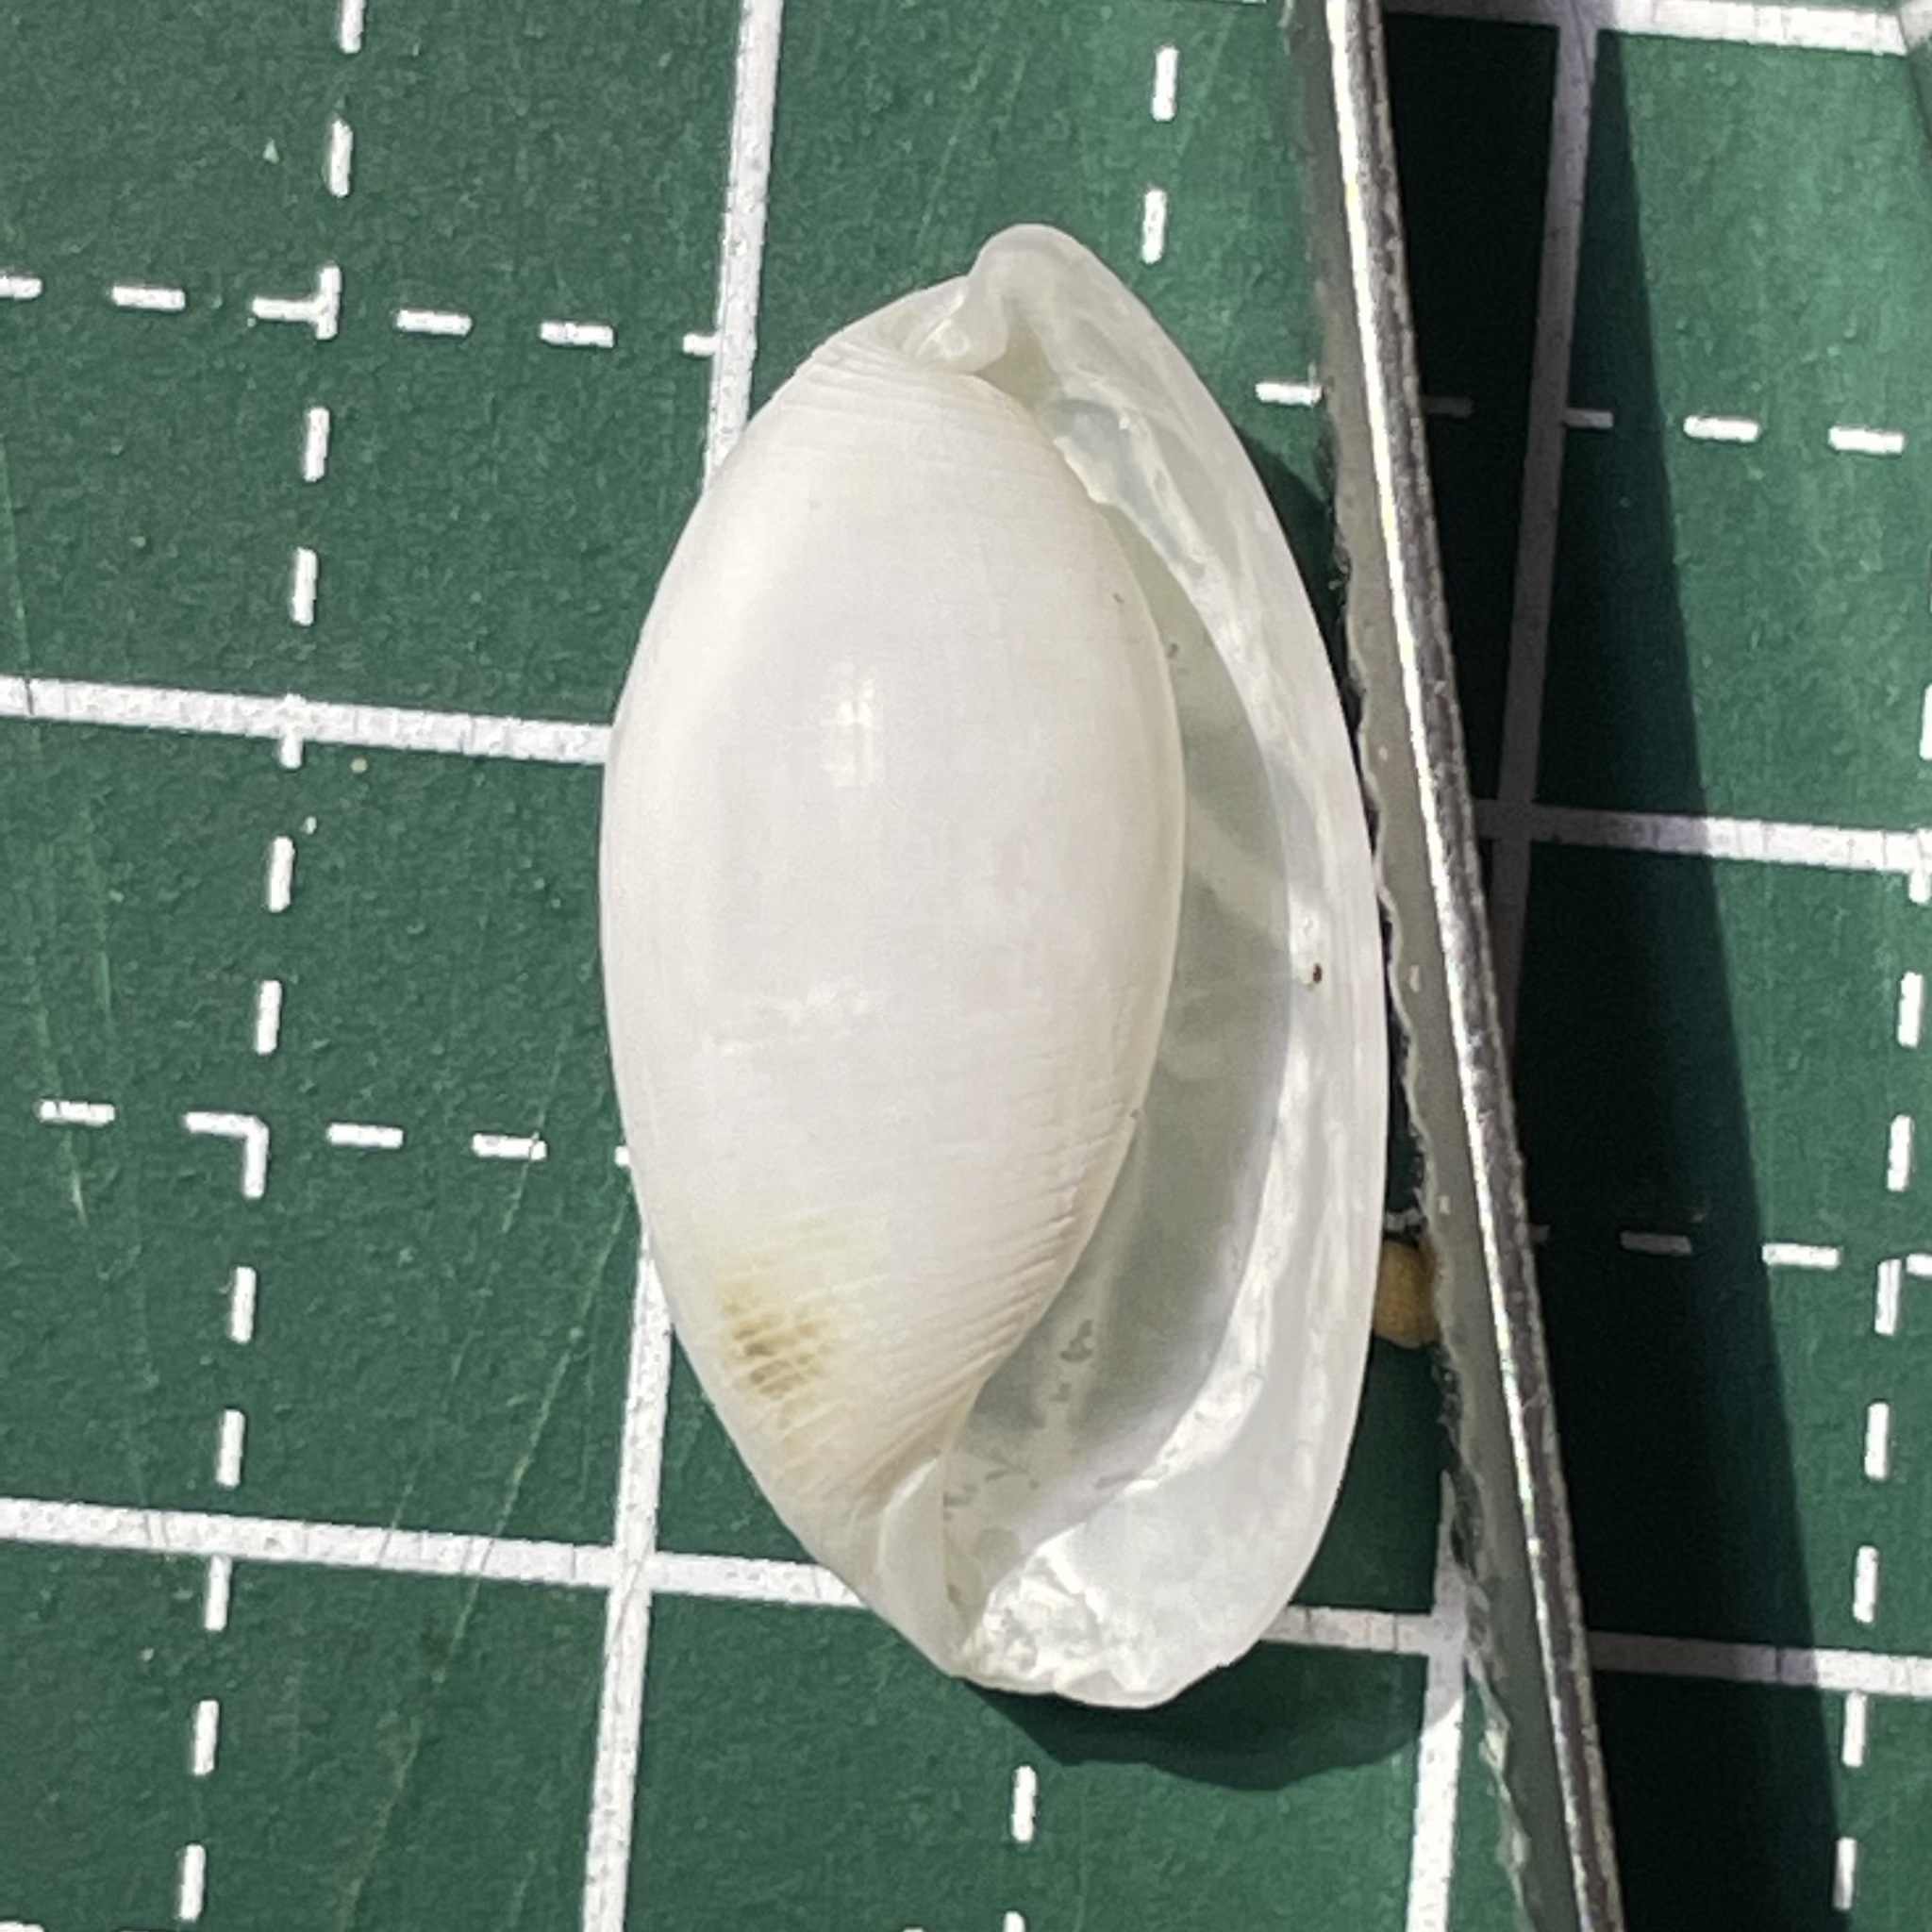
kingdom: Animalia
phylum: Mollusca
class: Gastropoda
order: Cephalaspidea
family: Haminoeidae
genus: Aliculastrum
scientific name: Aliculastrum cylindricum
